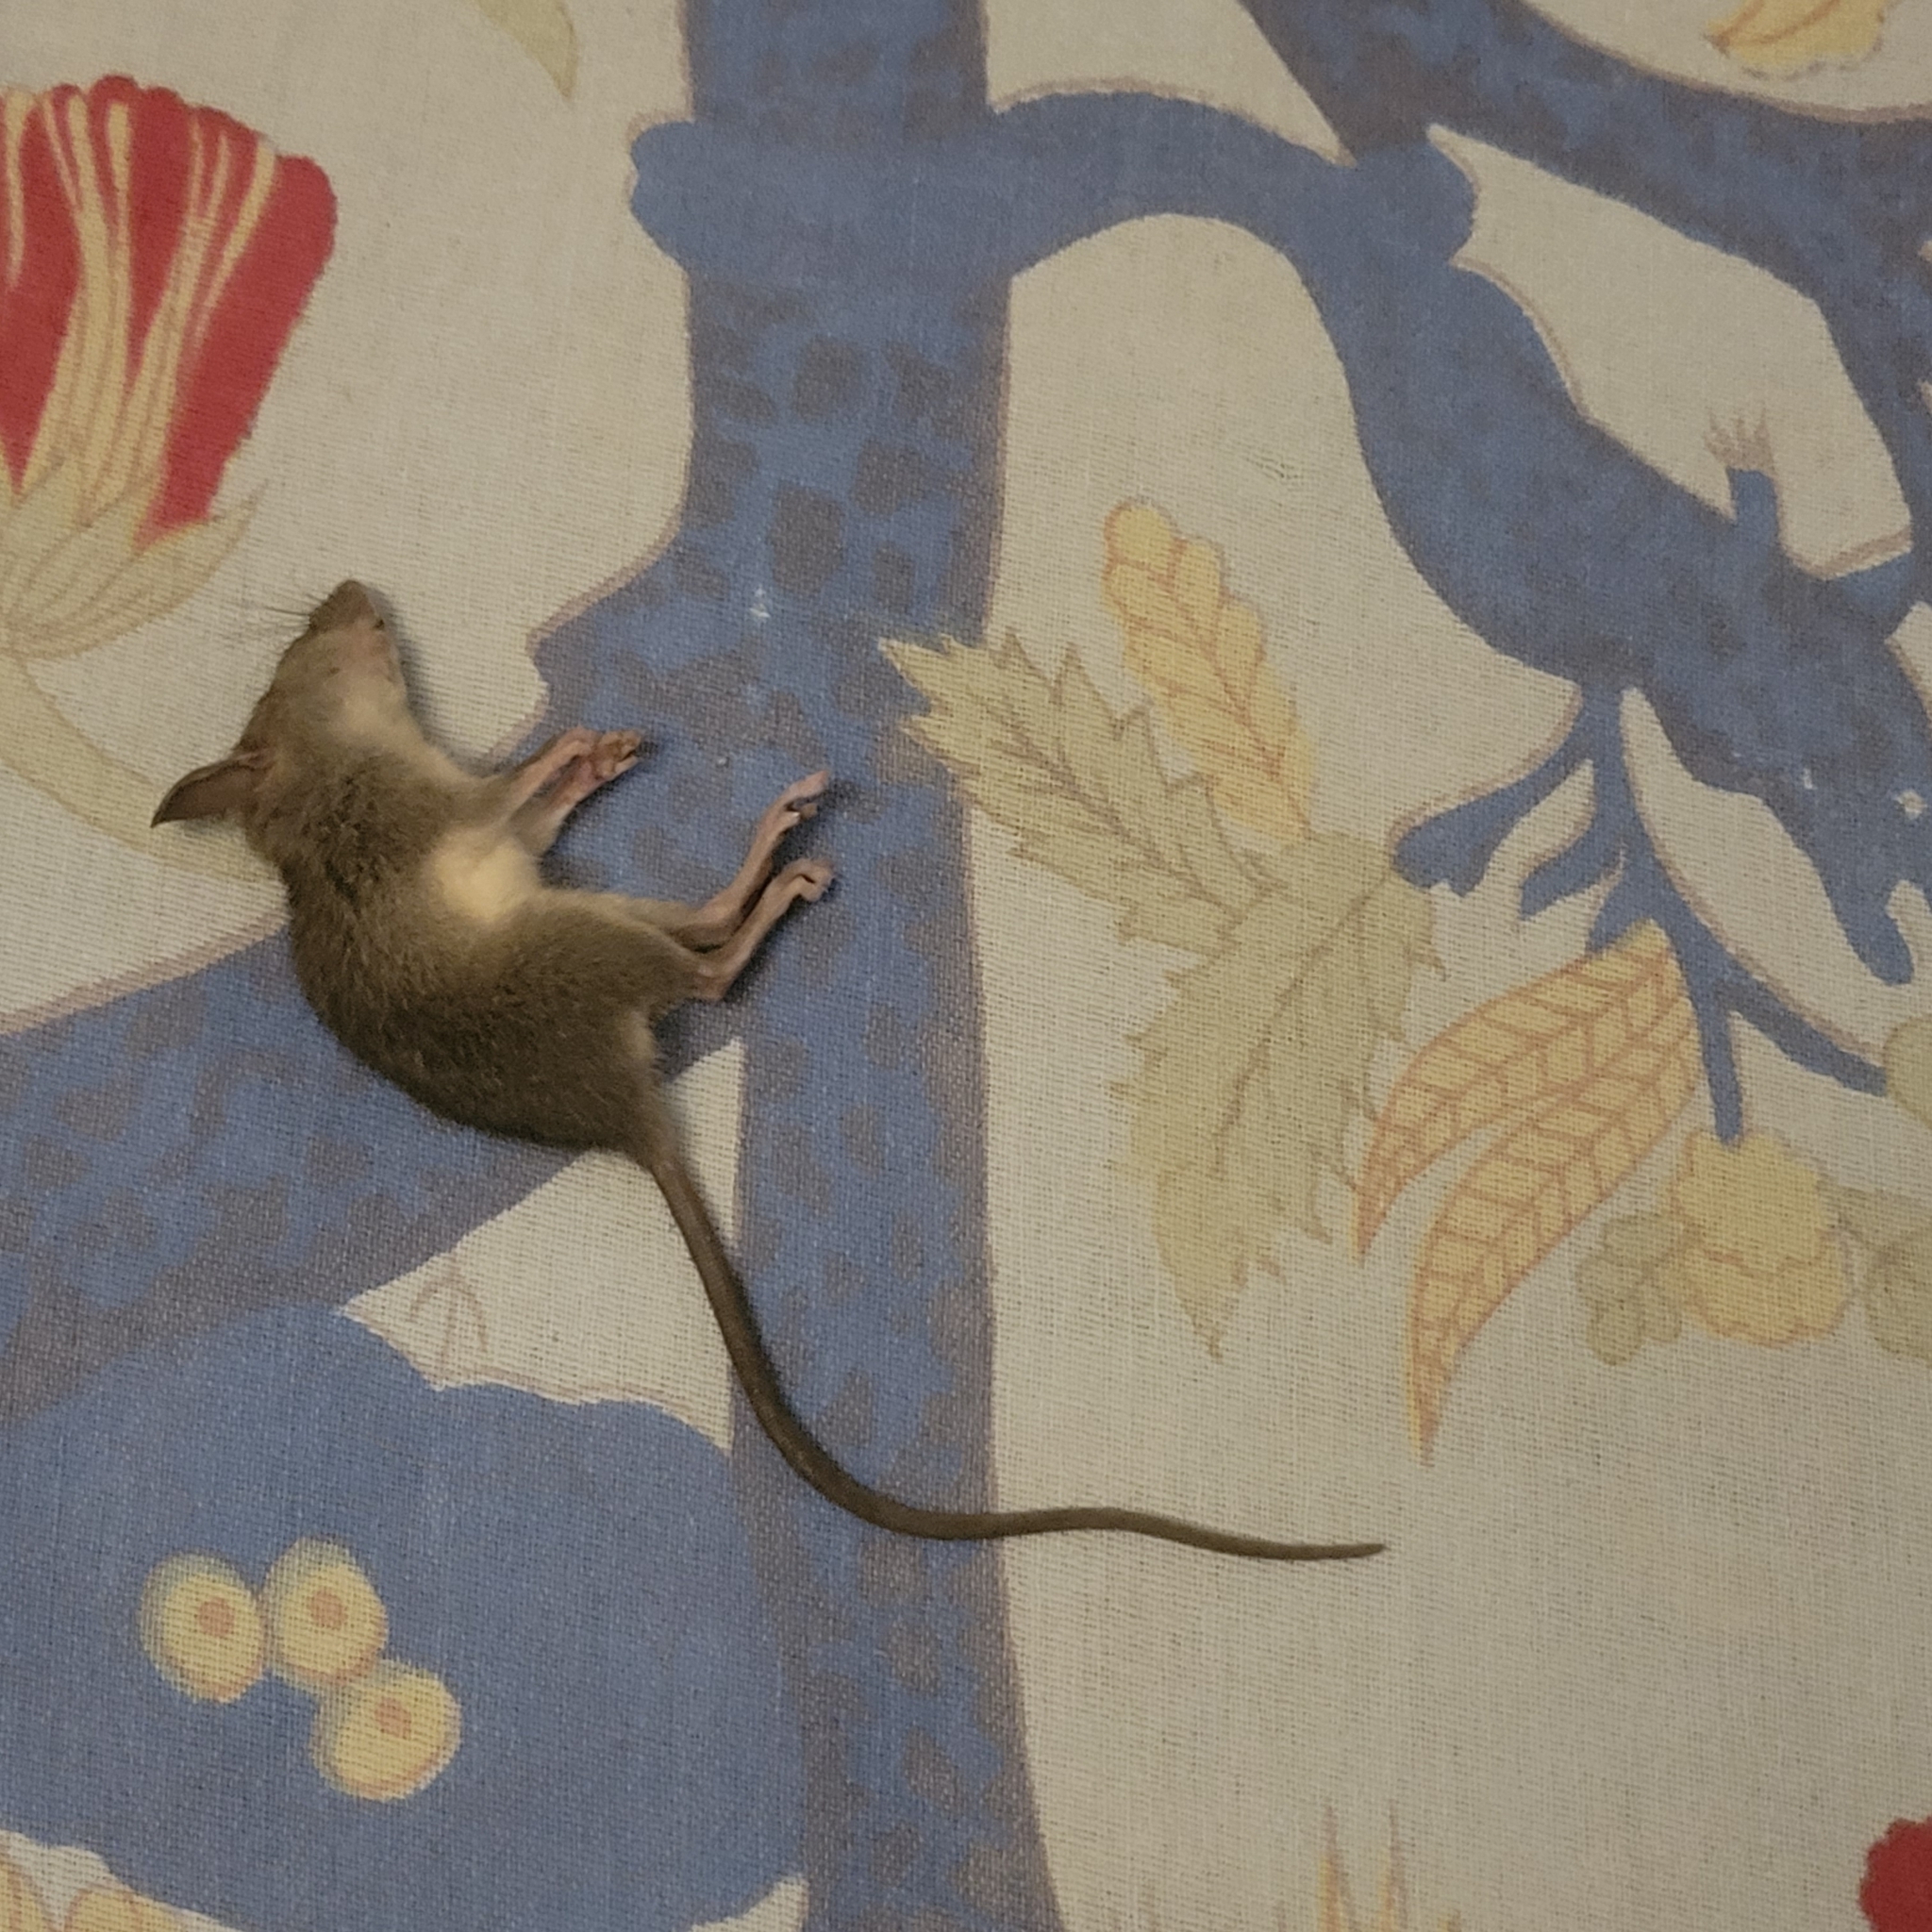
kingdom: Animalia
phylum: Chordata
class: Mammalia
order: Rodentia
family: Muridae
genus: Mus
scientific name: Mus musculus
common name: House mouse
